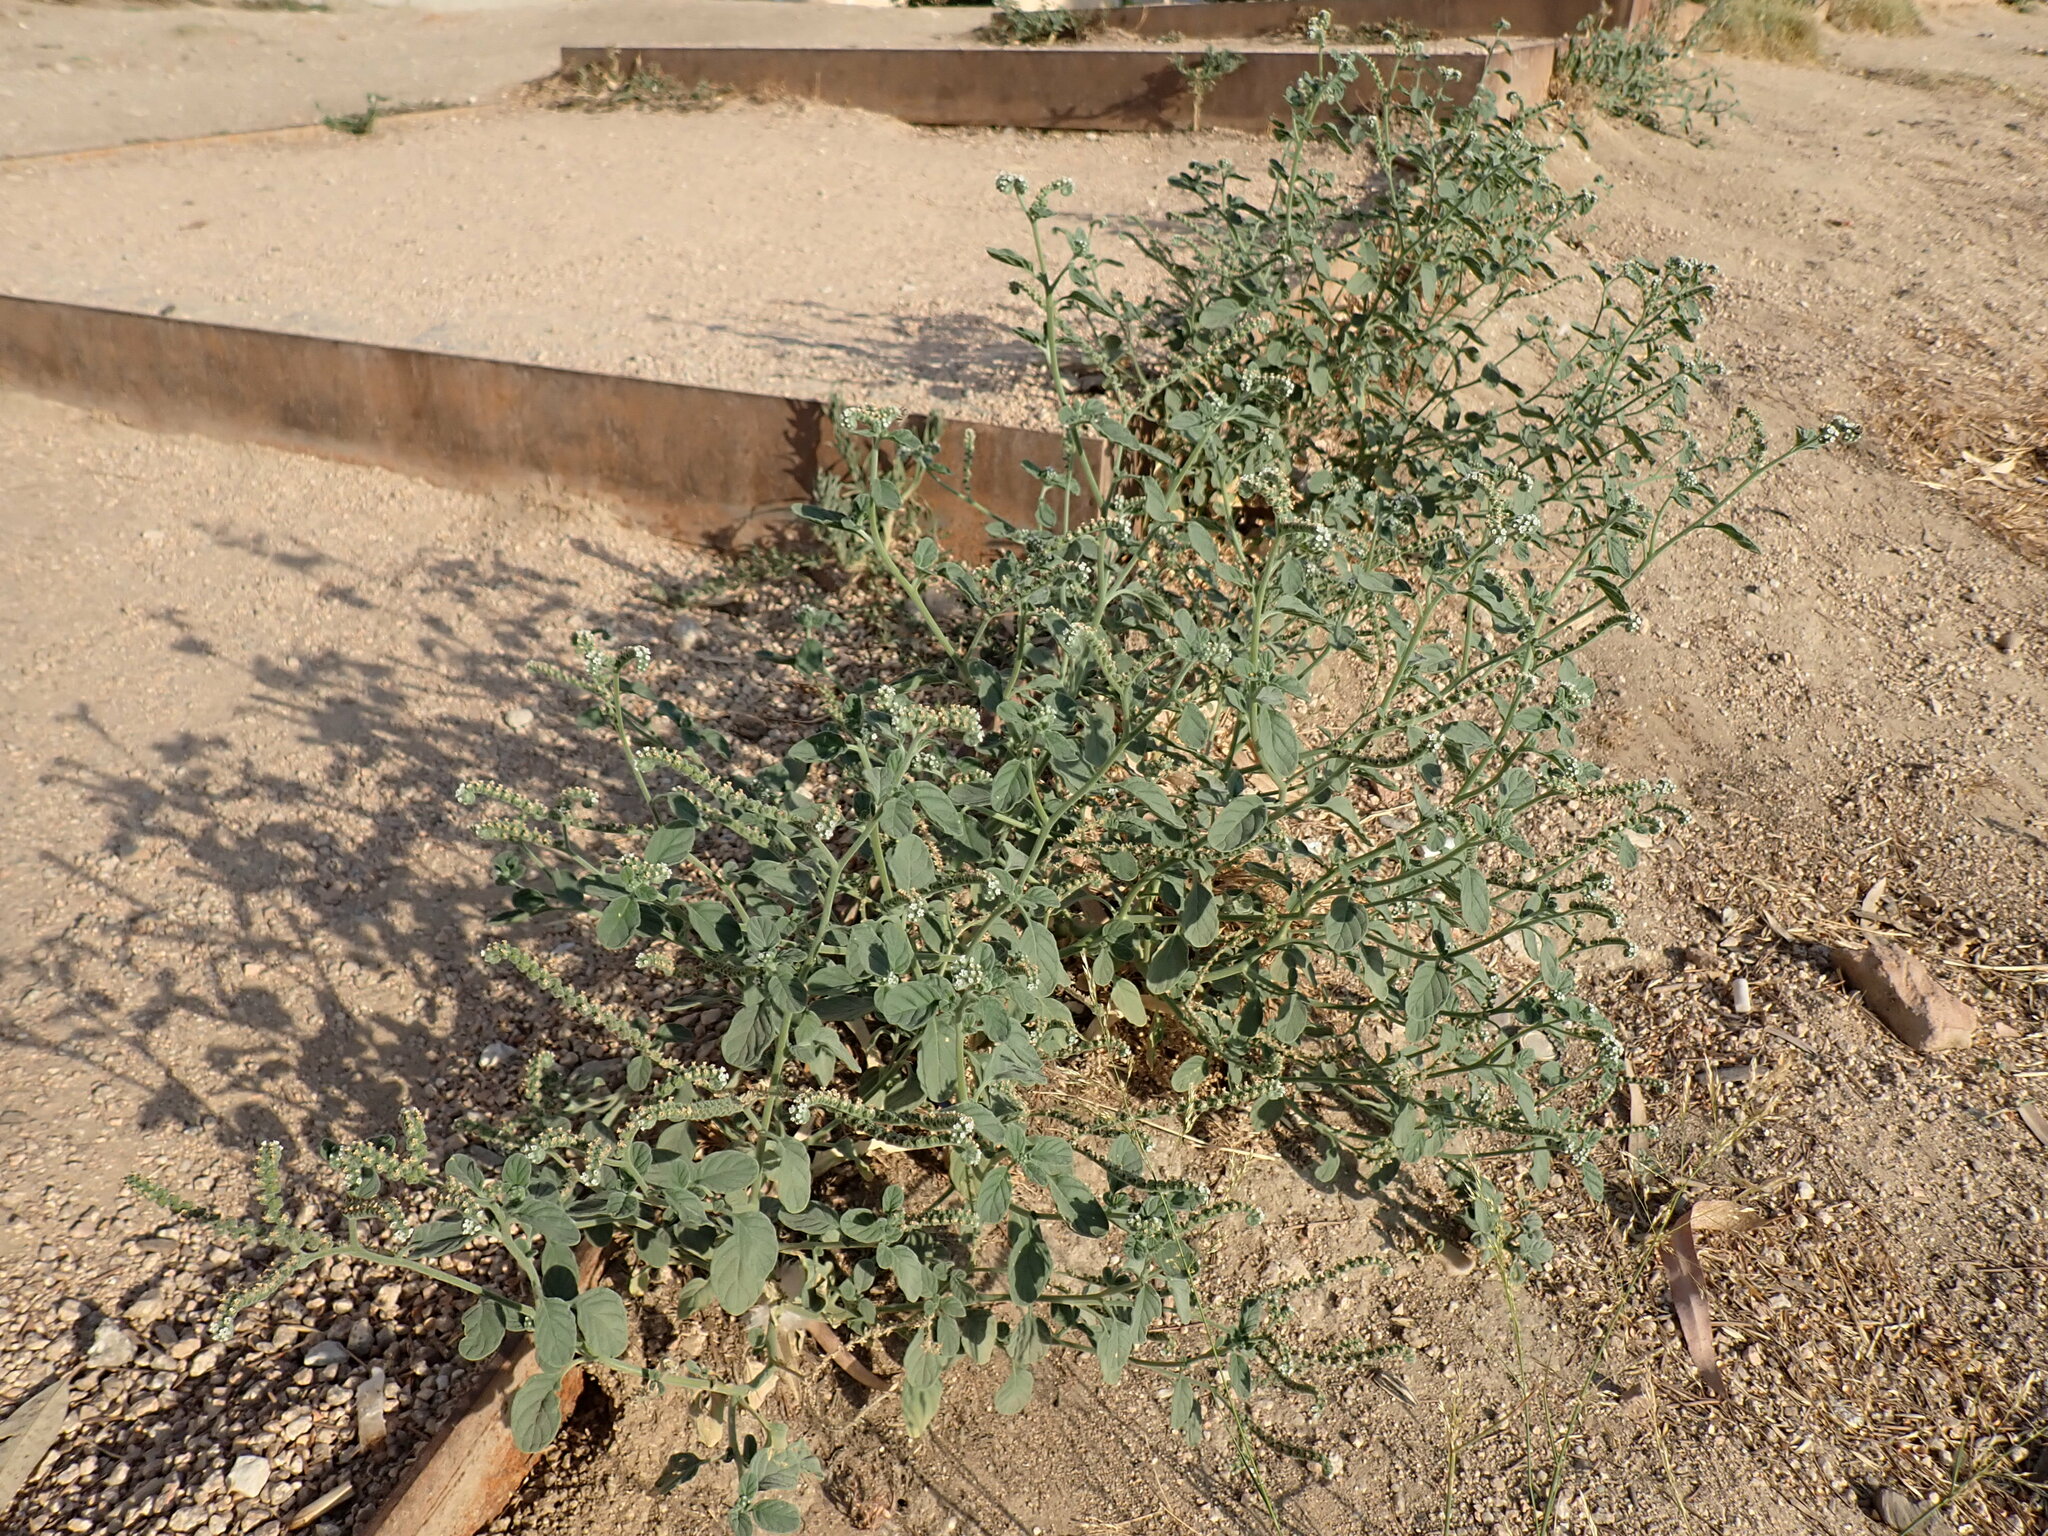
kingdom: Plantae
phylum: Tracheophyta
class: Magnoliopsida
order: Boraginales
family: Heliotropiaceae
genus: Heliotropium
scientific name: Heliotropium europaeum
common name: European heliotrope
